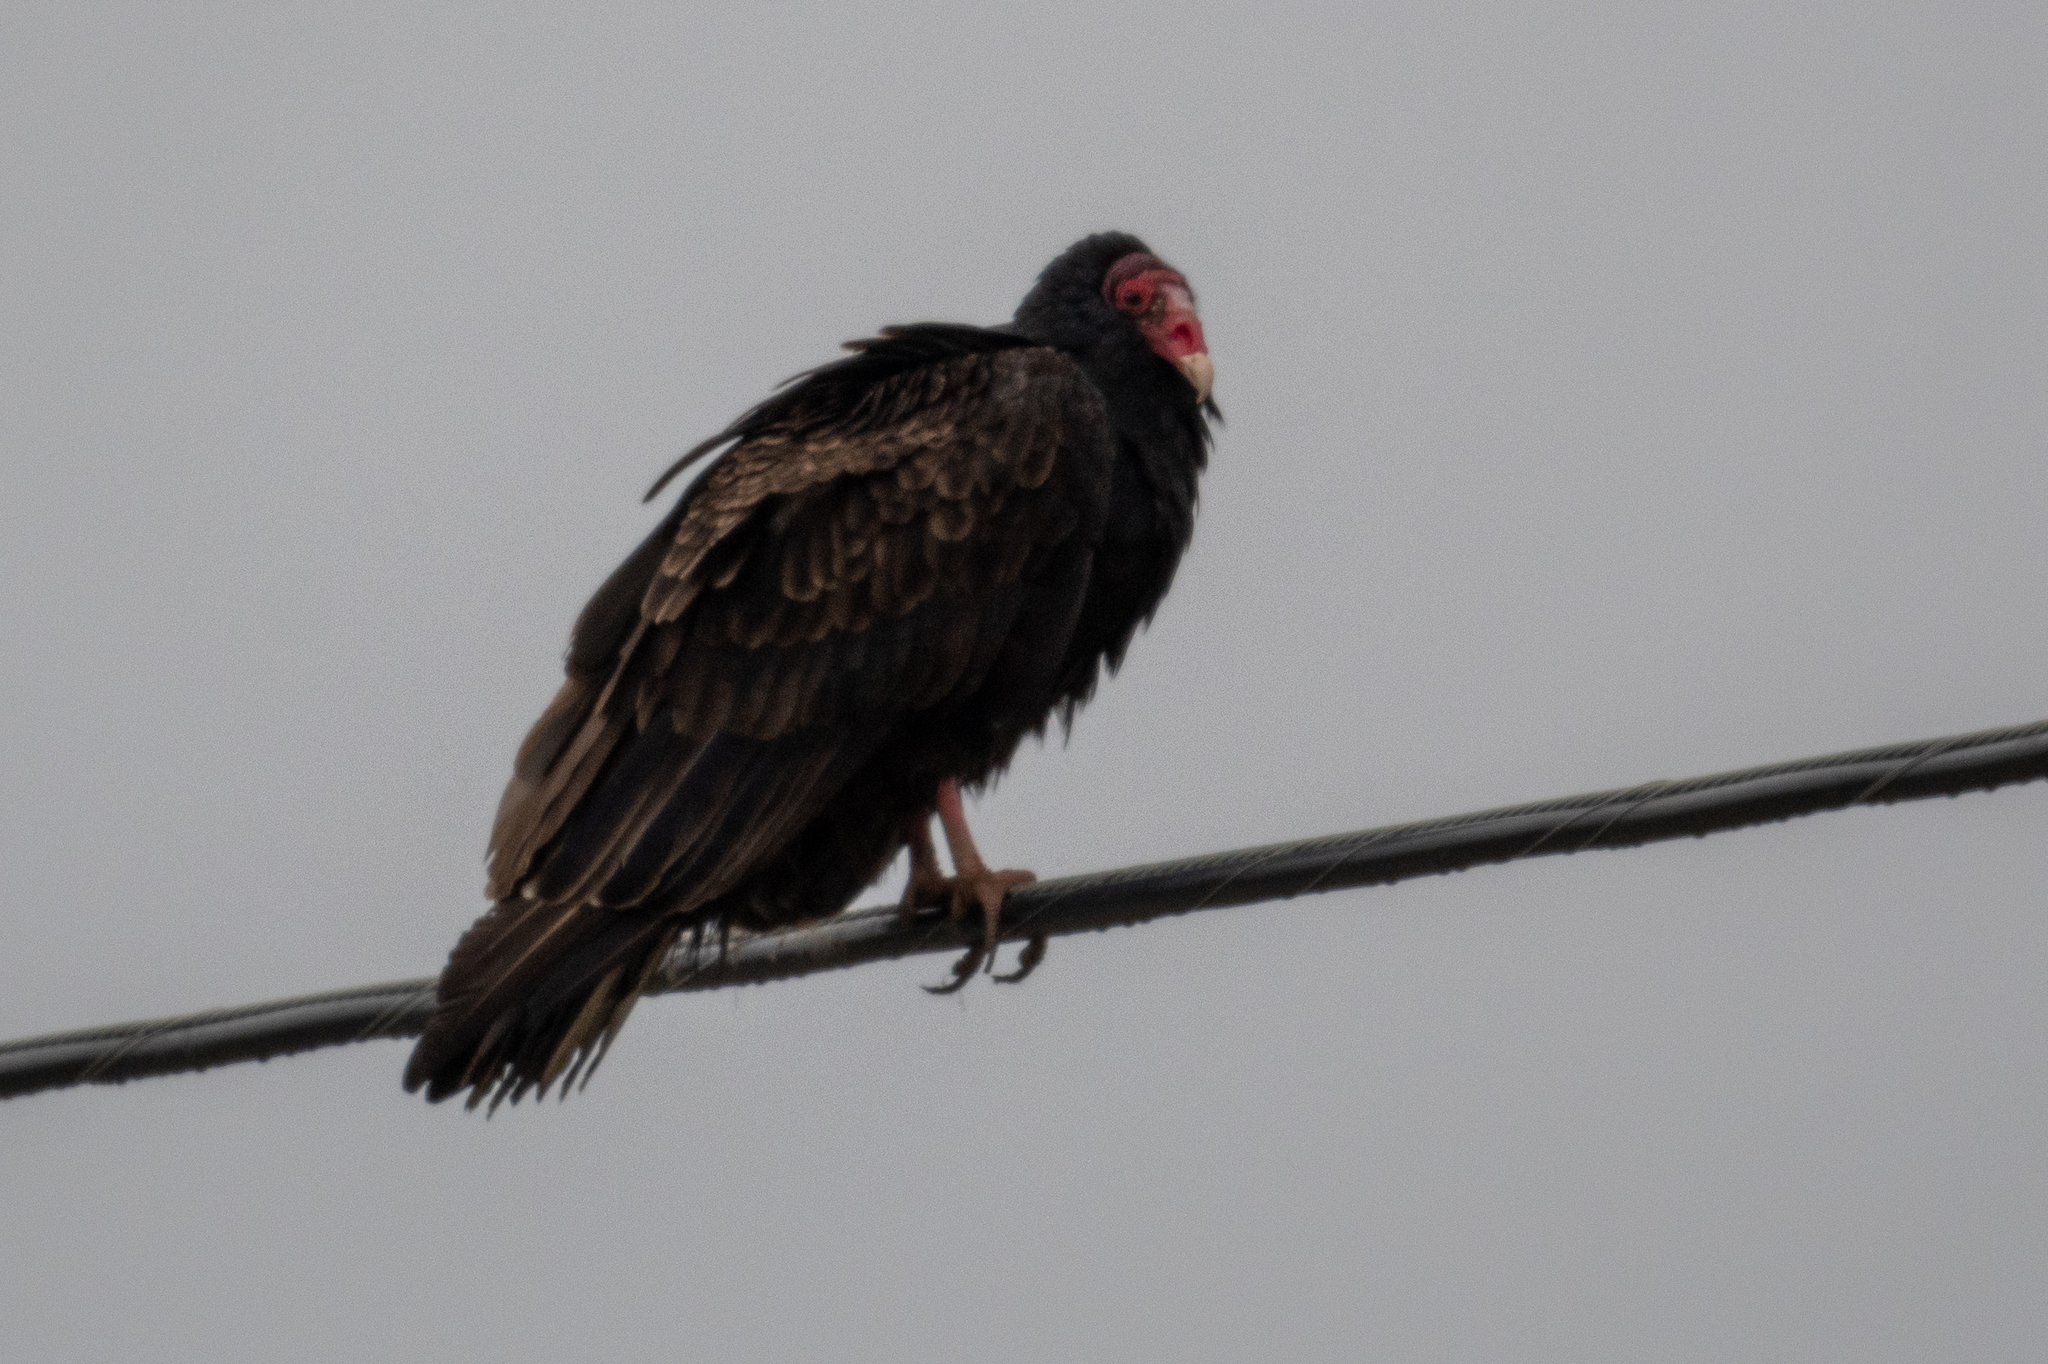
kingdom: Animalia
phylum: Chordata
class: Aves
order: Accipitriformes
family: Cathartidae
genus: Cathartes
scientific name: Cathartes aura
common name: Turkey vulture
